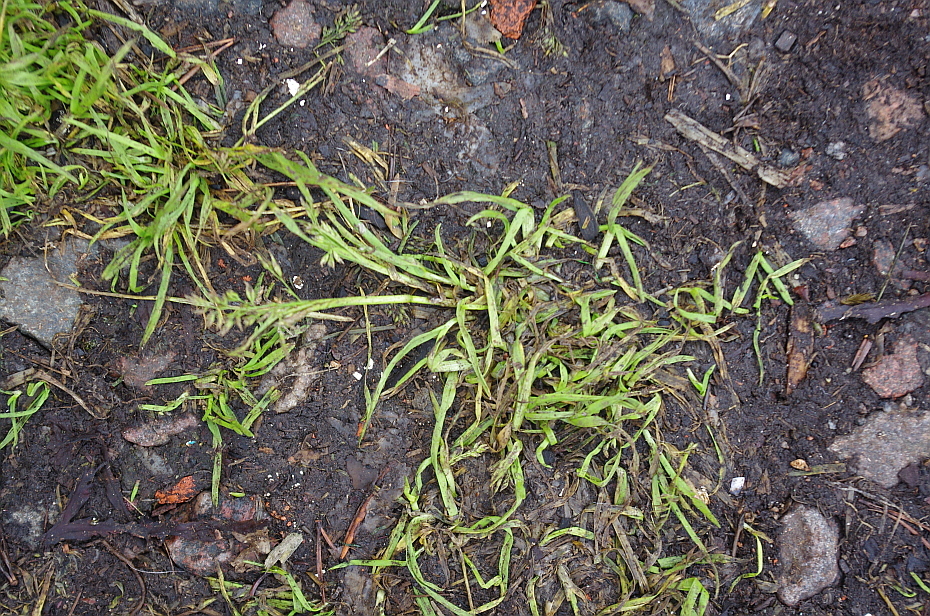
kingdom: Plantae
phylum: Tracheophyta
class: Liliopsida
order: Poales
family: Poaceae
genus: Poa
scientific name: Poa annua
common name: Annual bluegrass
